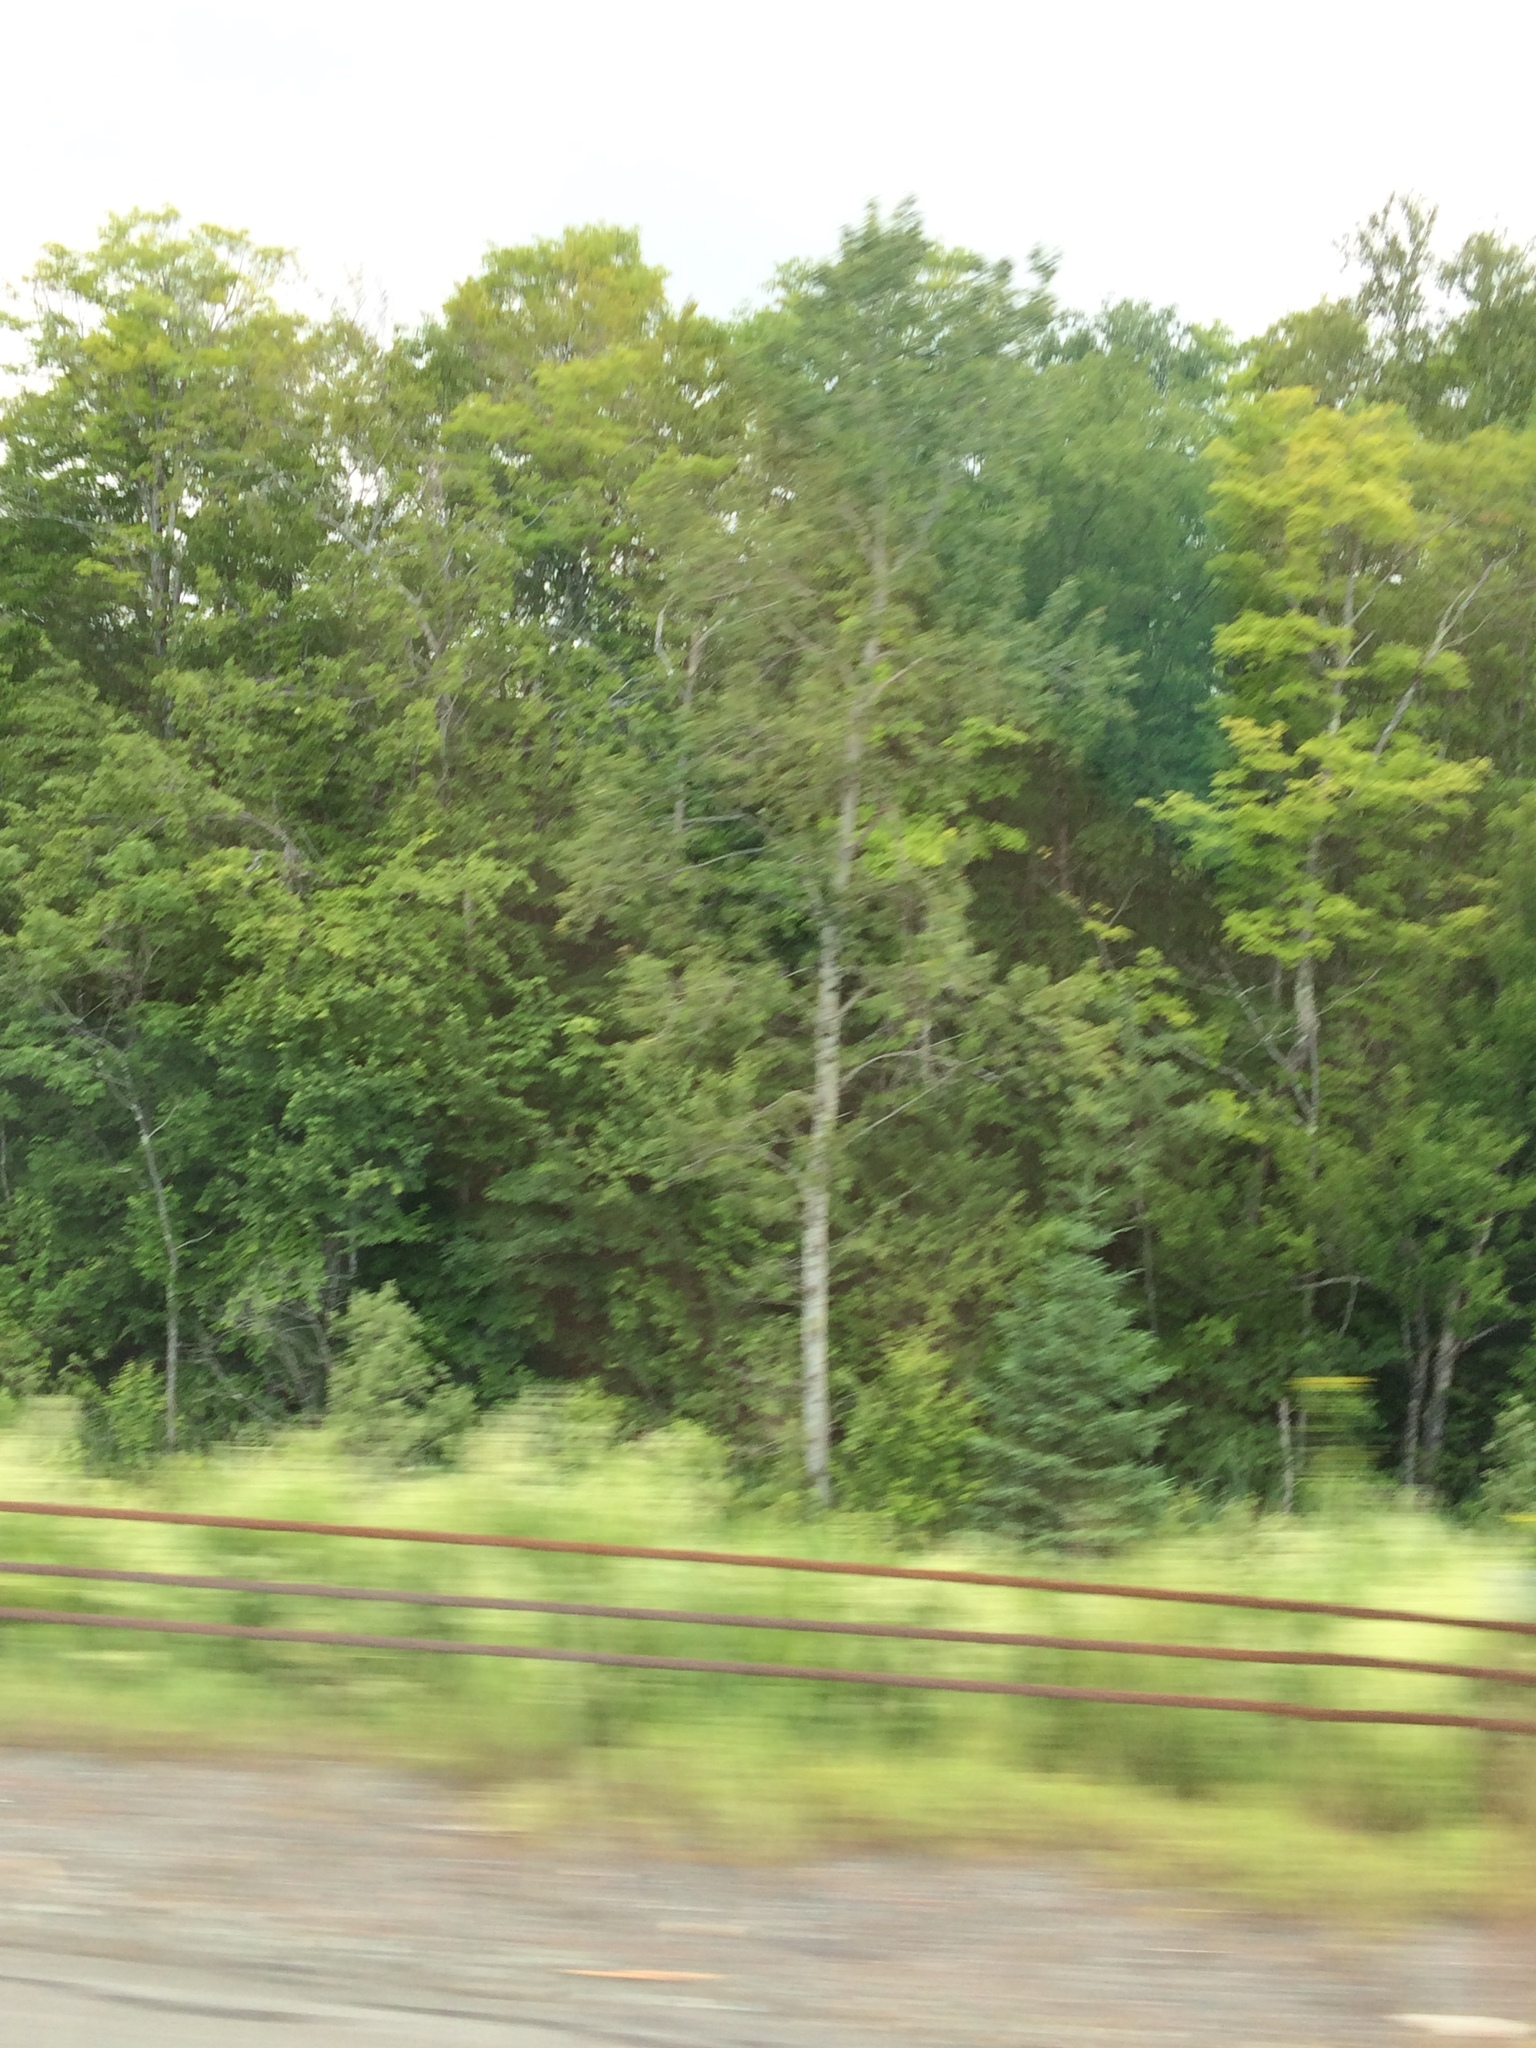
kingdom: Plantae
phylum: Tracheophyta
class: Magnoliopsida
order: Malpighiales
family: Salicaceae
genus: Populus
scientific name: Populus tremuloides
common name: Quaking aspen
